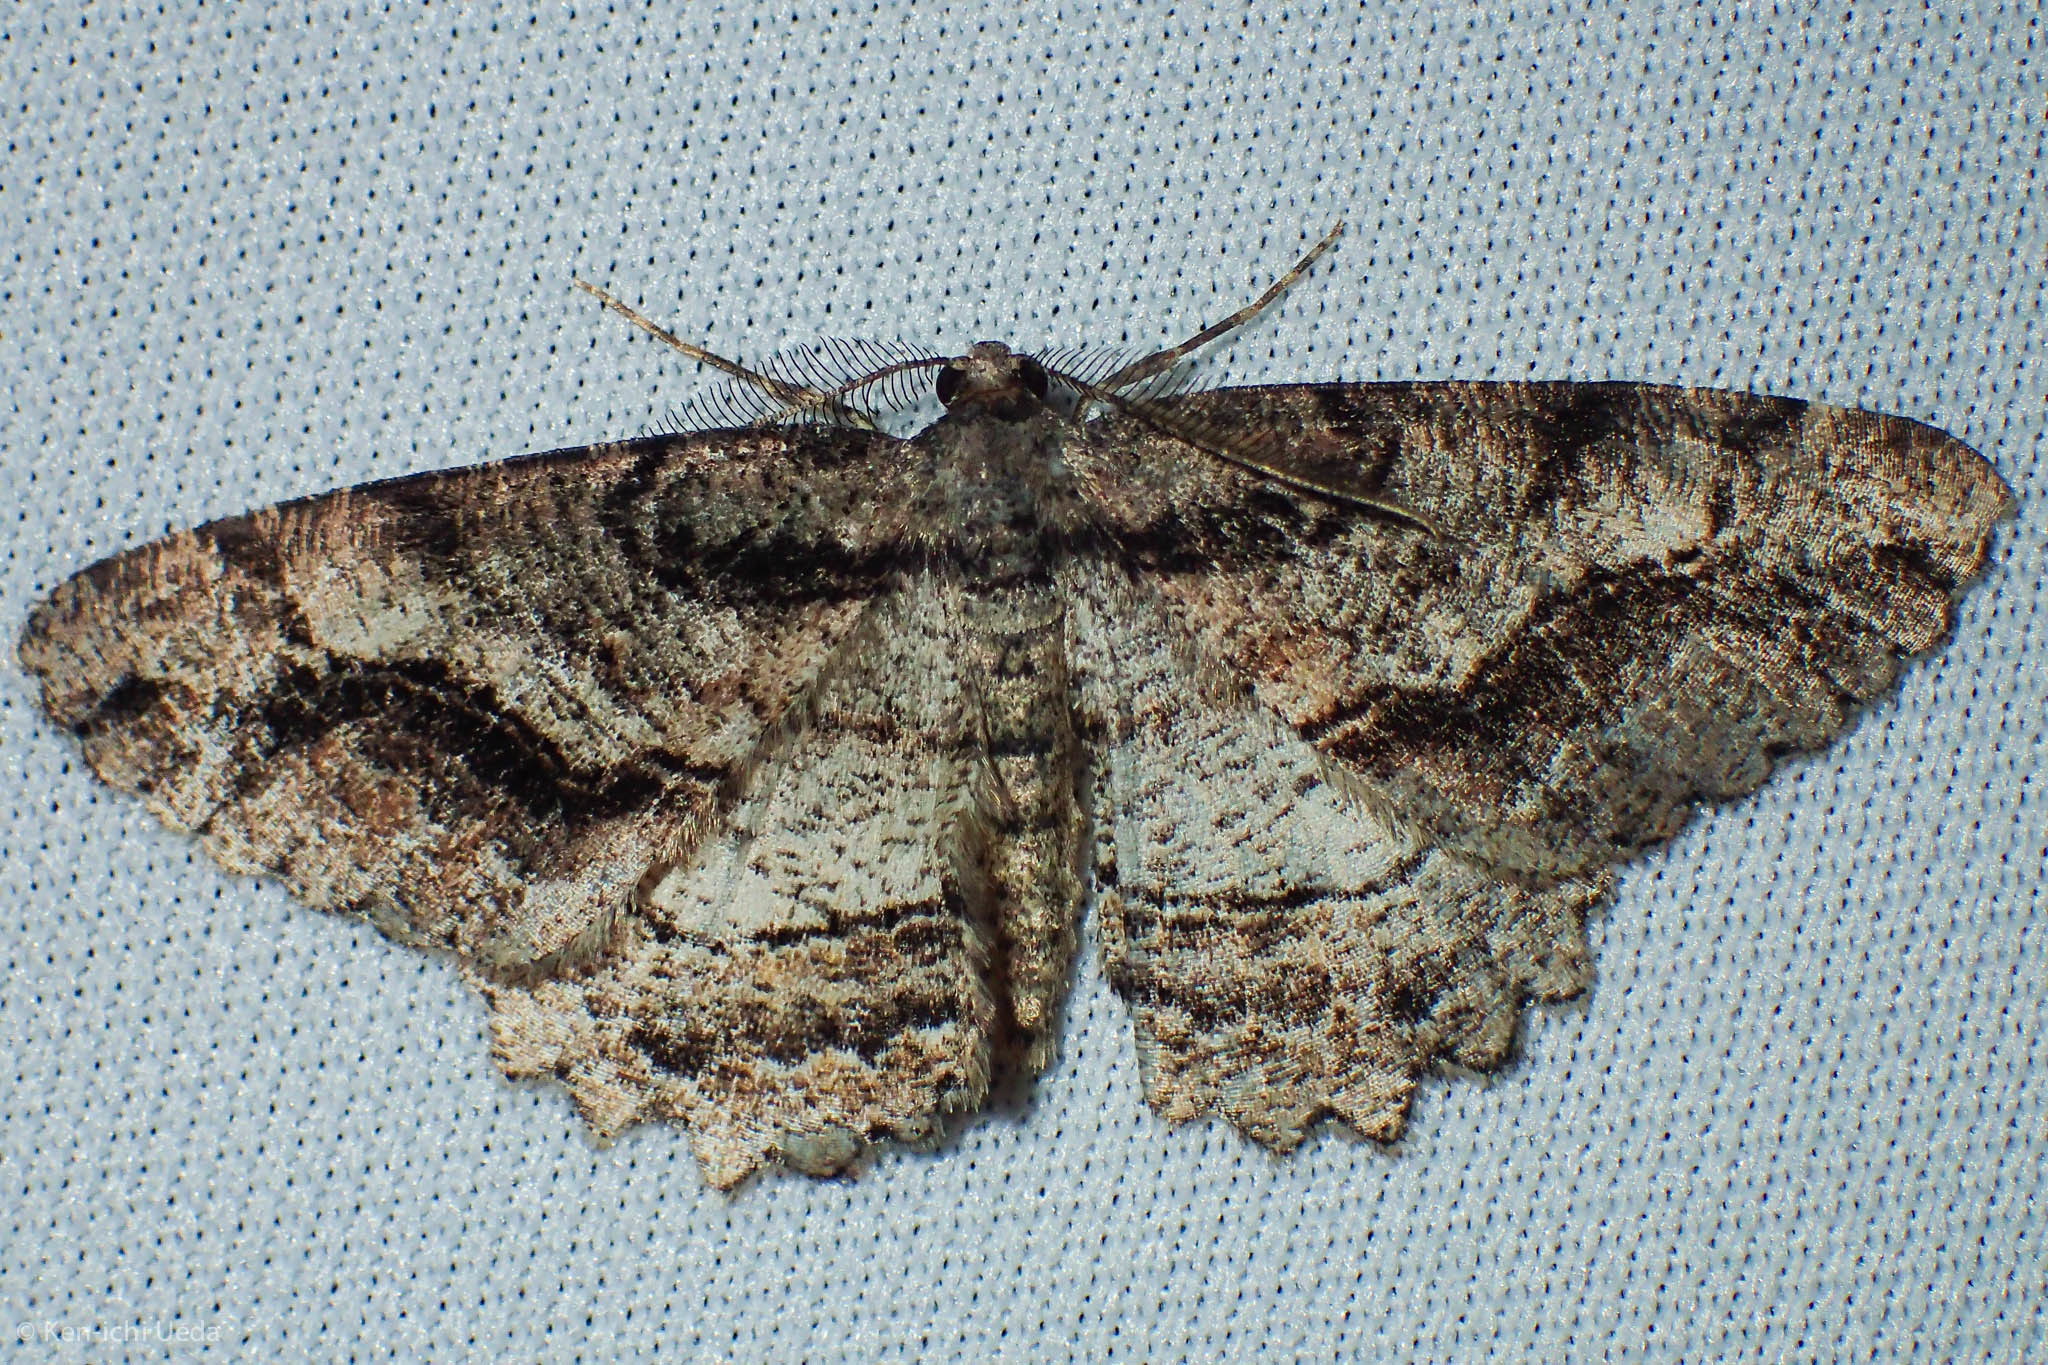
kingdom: Animalia
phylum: Arthropoda
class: Insecta
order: Lepidoptera
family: Geometridae
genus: Neoalcis
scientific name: Neoalcis californiaria
